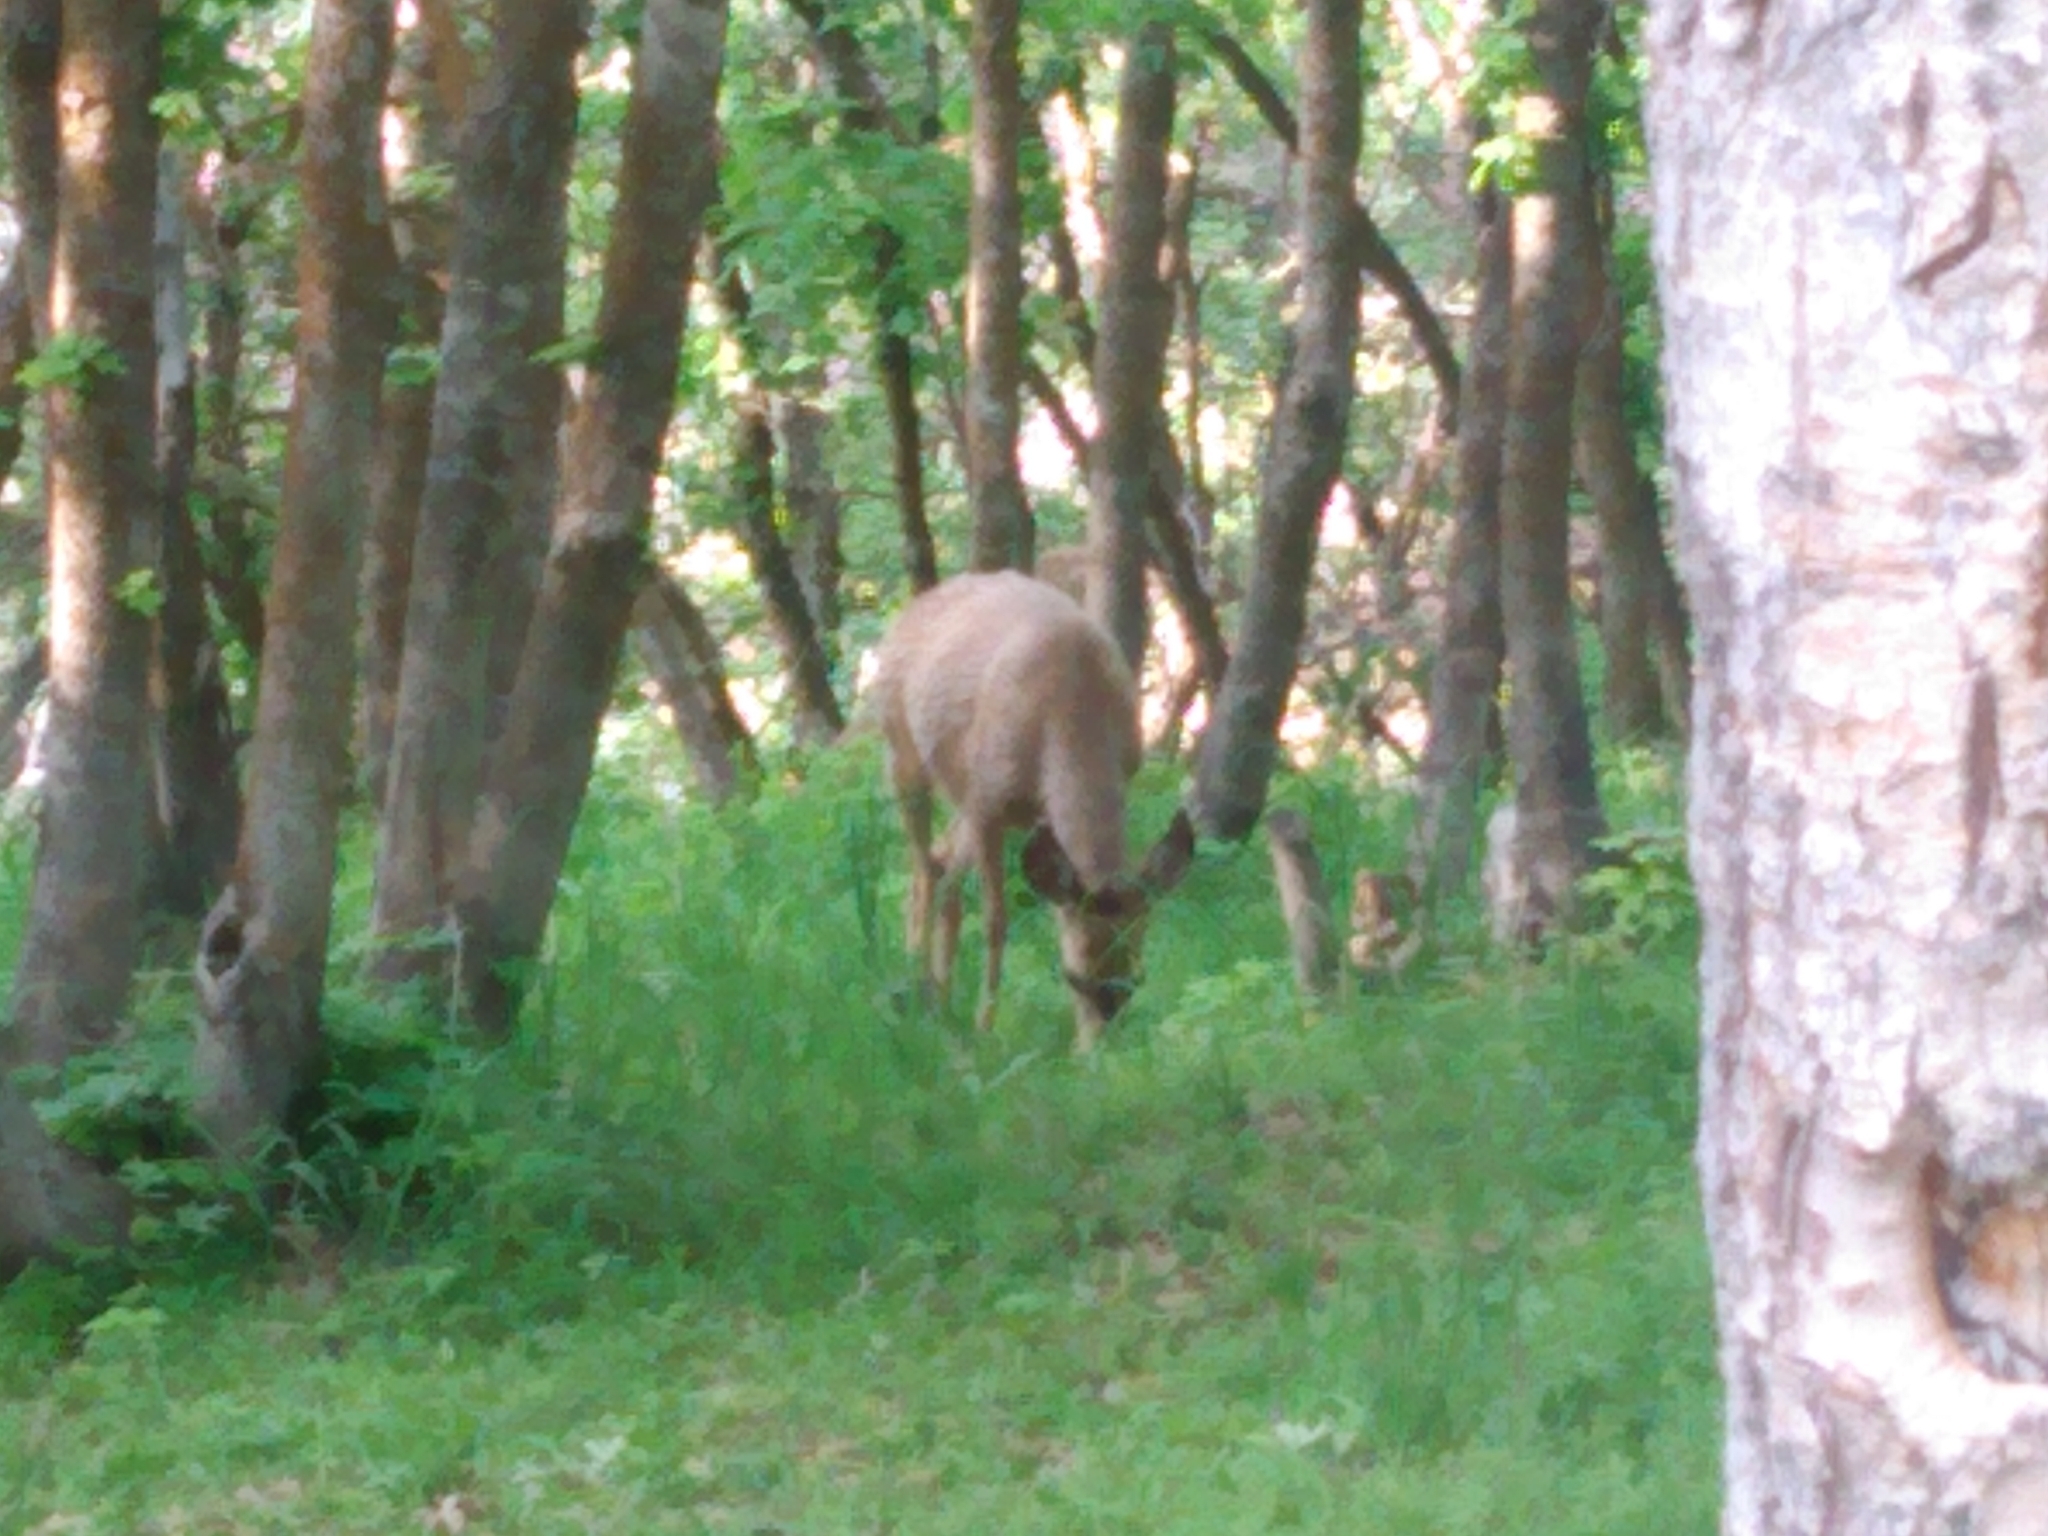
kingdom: Animalia
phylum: Chordata
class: Mammalia
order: Artiodactyla
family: Cervidae
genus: Odocoileus
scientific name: Odocoileus hemionus
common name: Mule deer
